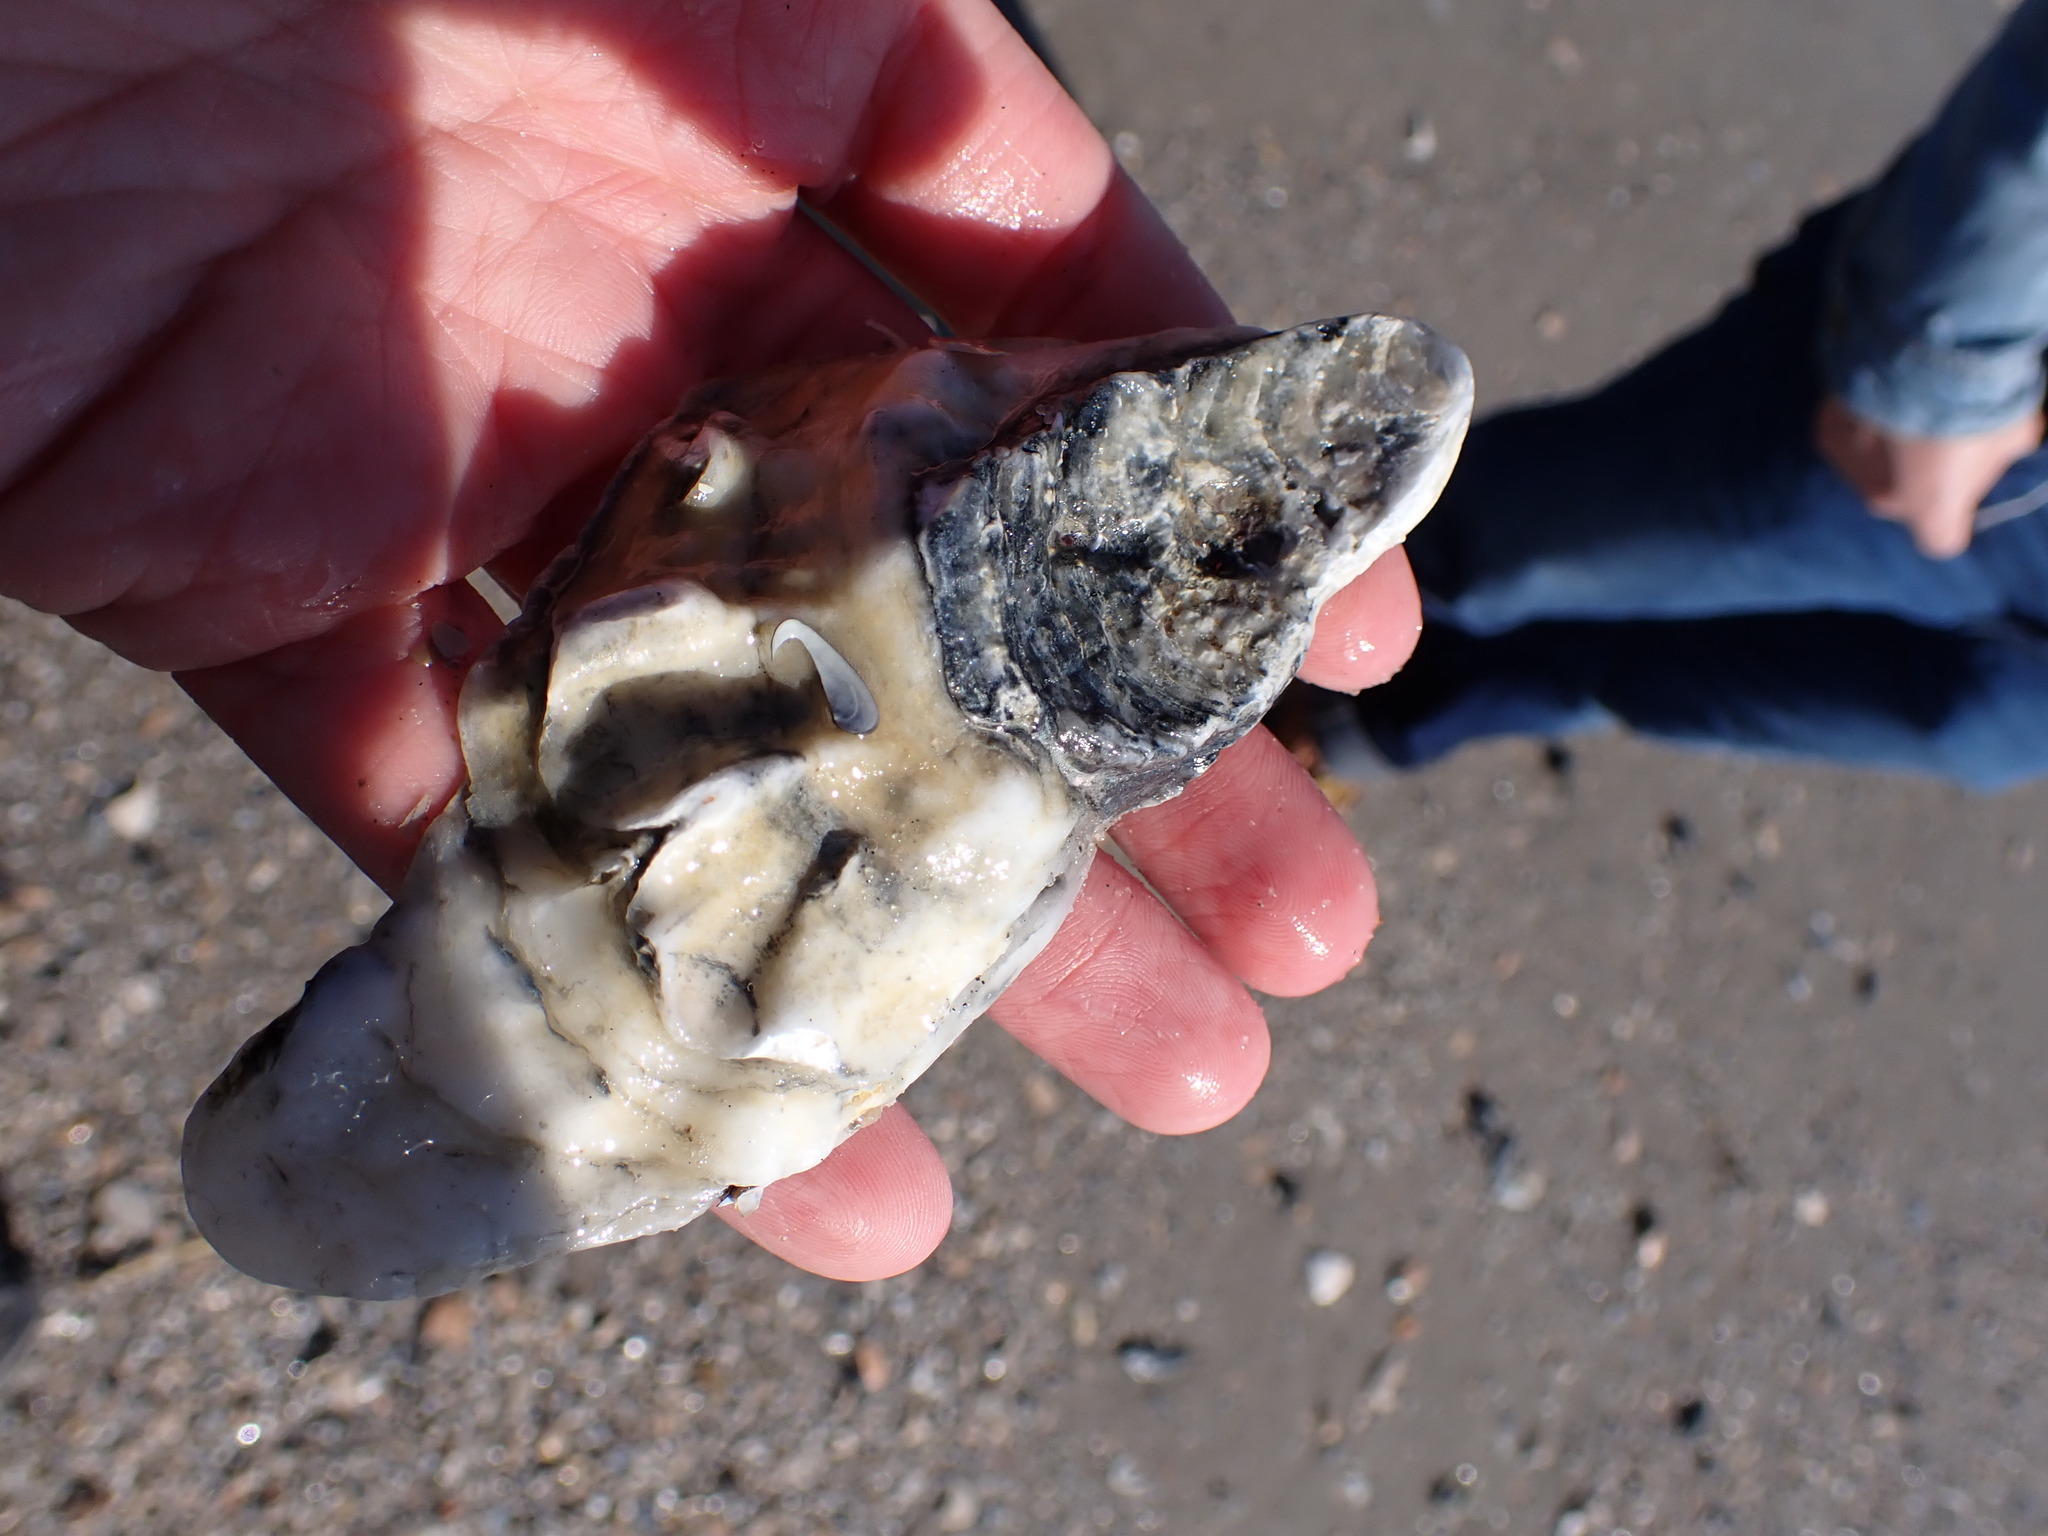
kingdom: Animalia
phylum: Mollusca
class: Bivalvia
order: Ostreida
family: Ostreidae
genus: Crassostrea
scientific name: Crassostrea virginica
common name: American oyster
